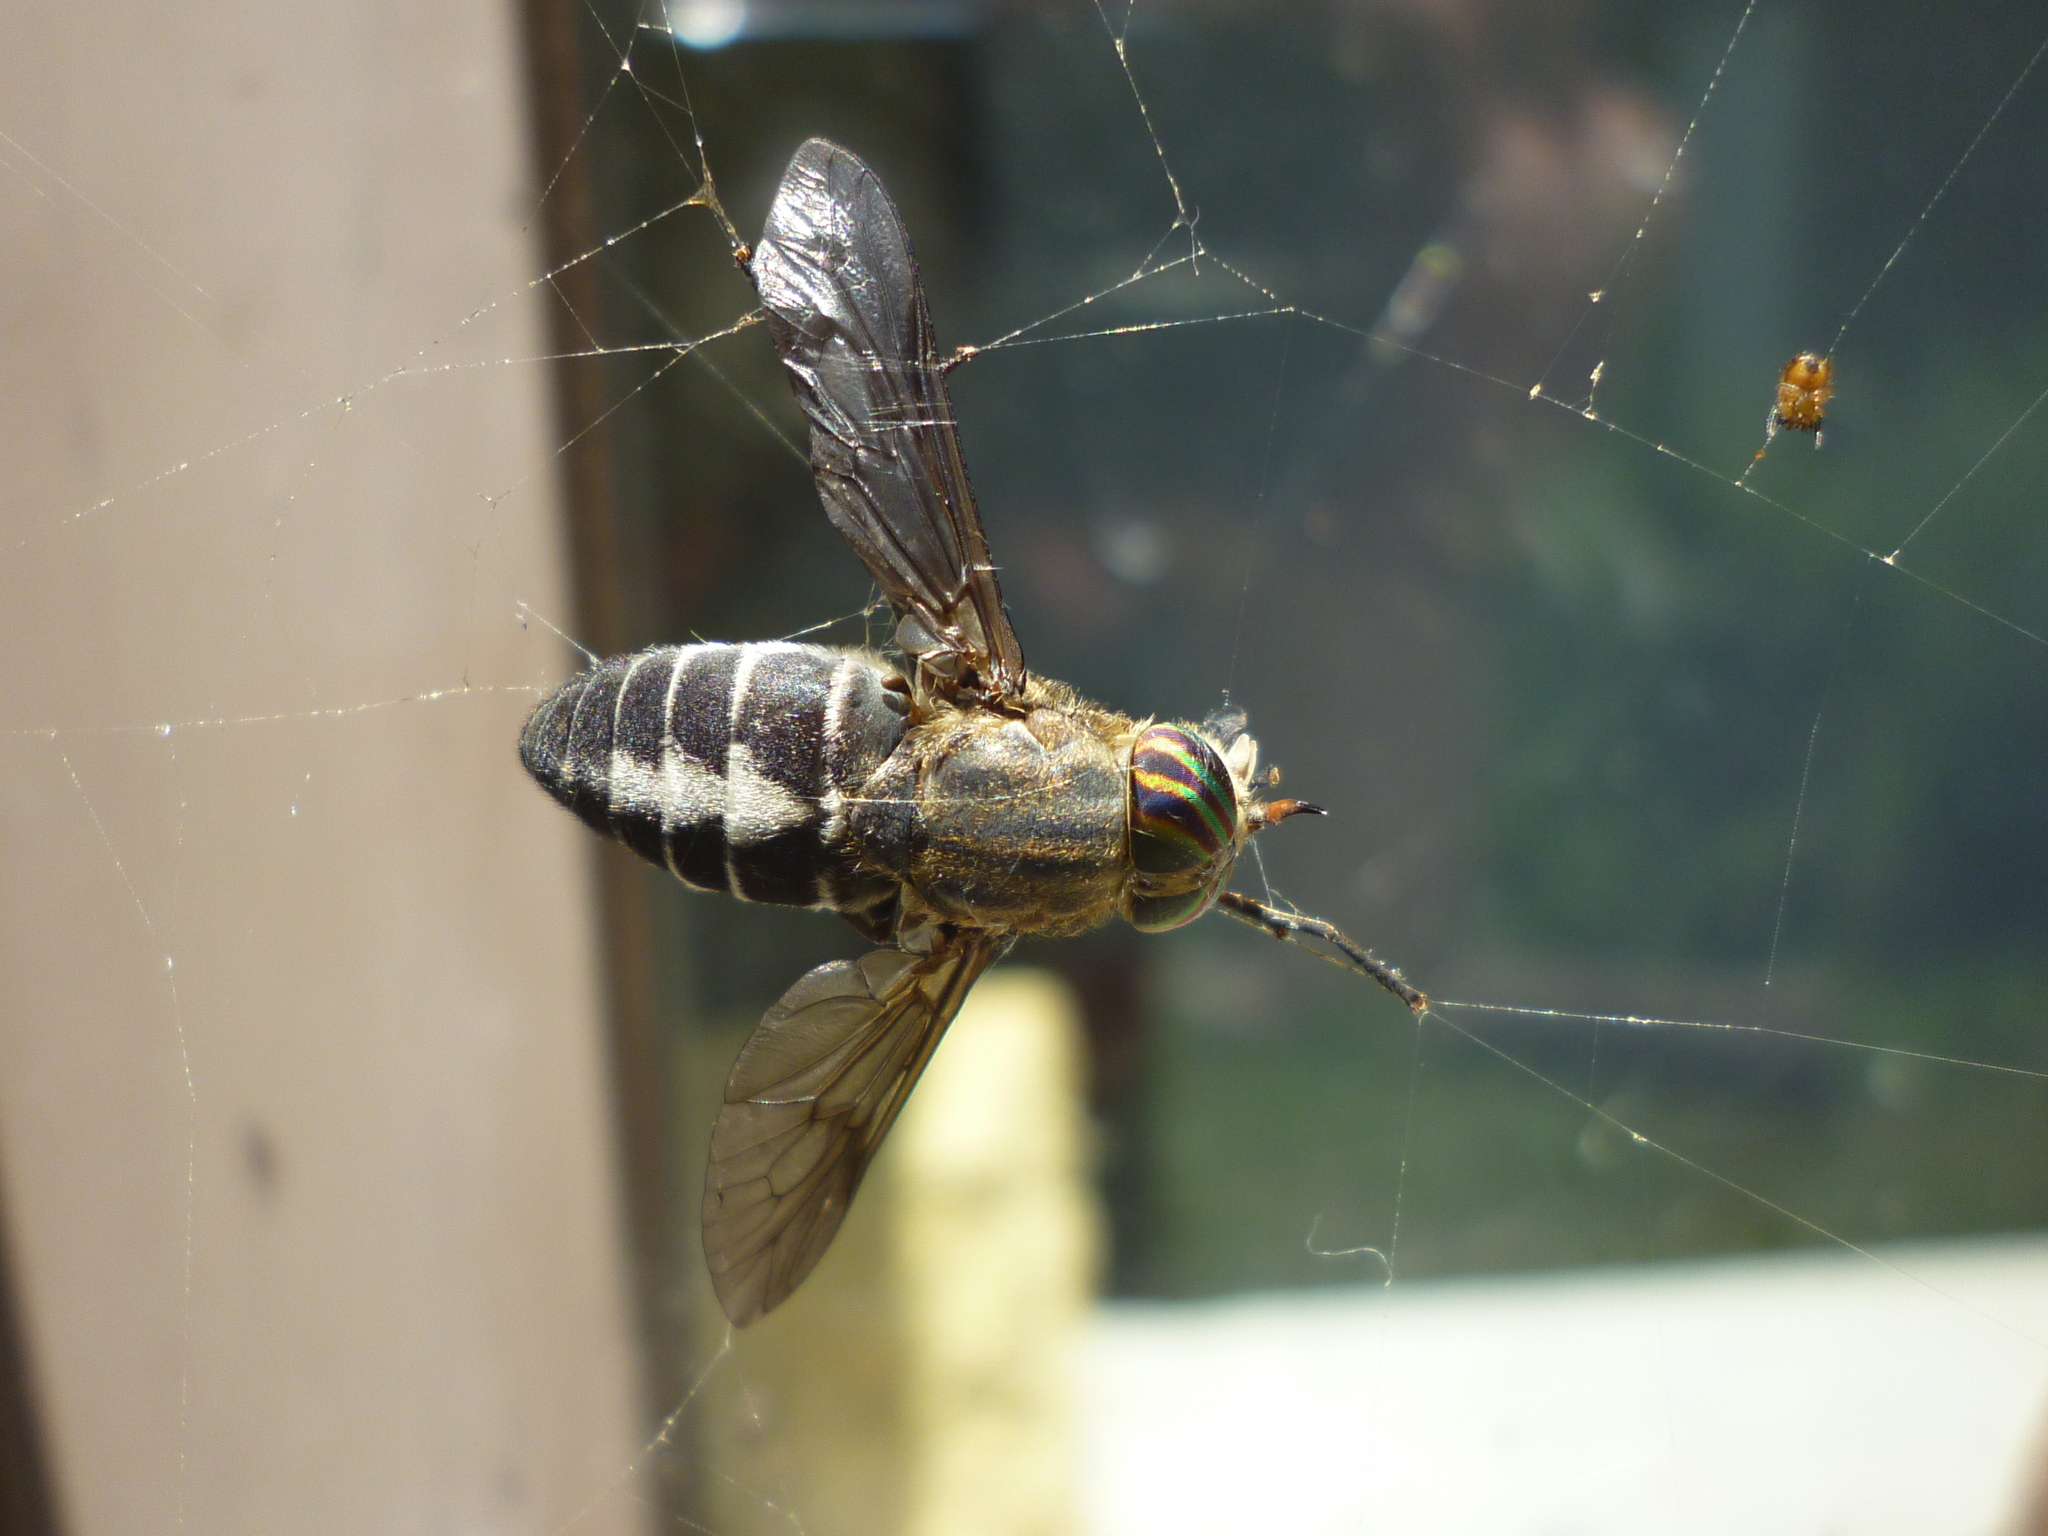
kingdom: Animalia
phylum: Arthropoda
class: Insecta
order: Diptera
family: Tabanidae
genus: Hybomitra
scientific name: Hybomitra sodalis
